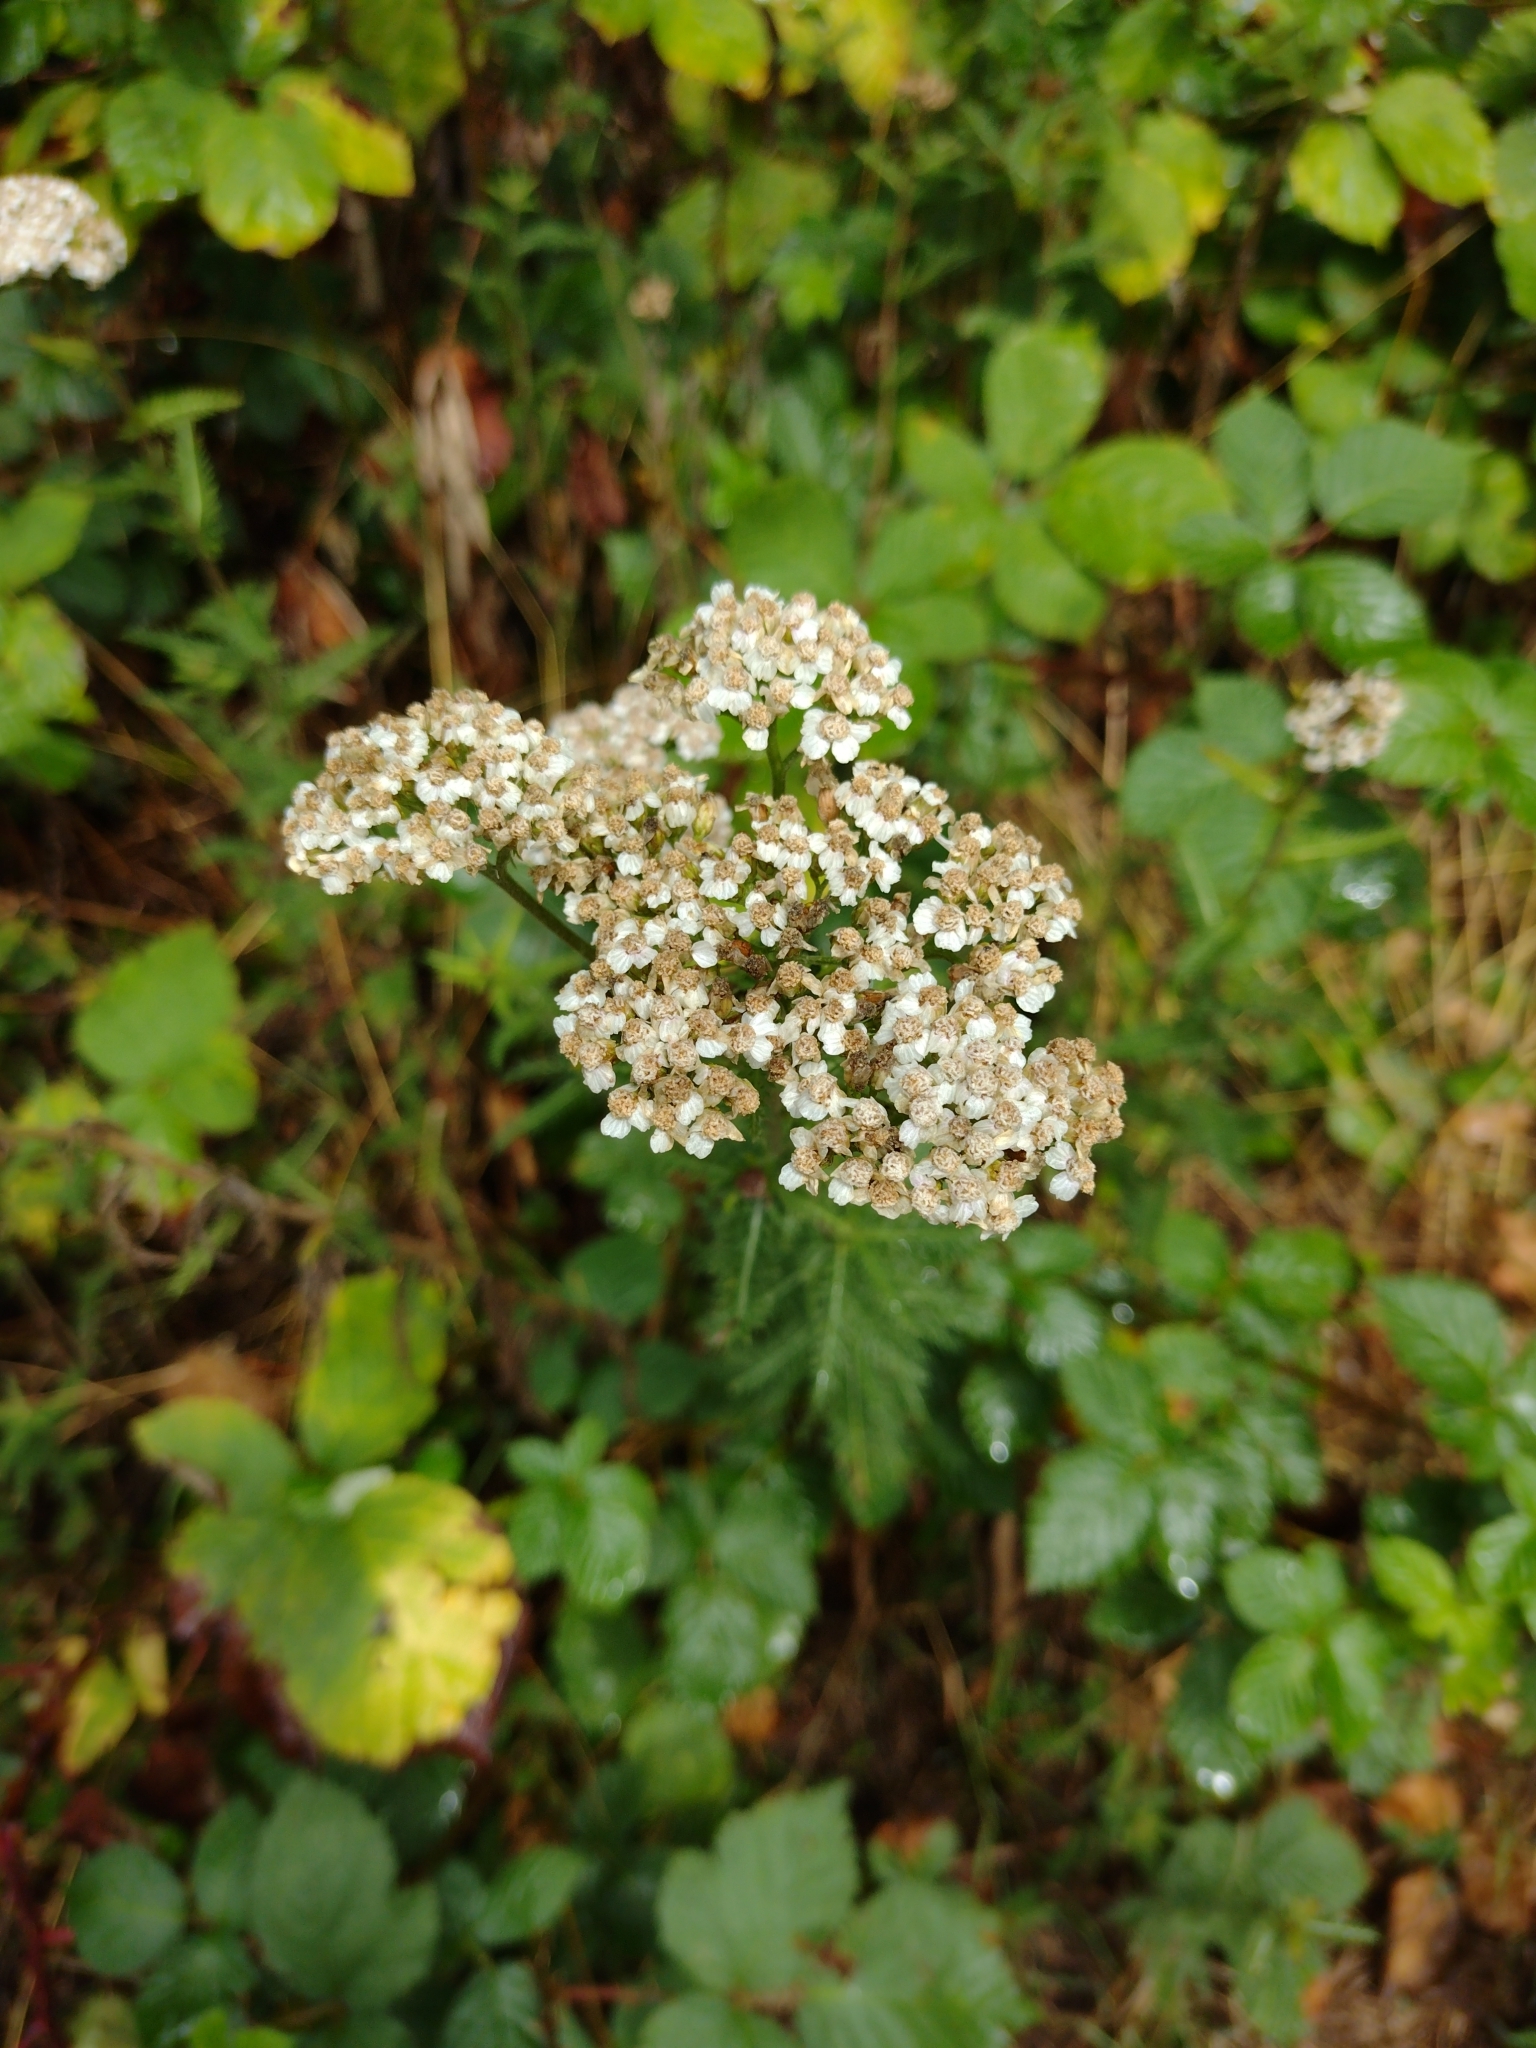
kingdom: Plantae
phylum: Tracheophyta
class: Magnoliopsida
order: Asterales
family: Asteraceae
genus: Achillea
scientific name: Achillea millefolium
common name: Yarrow
